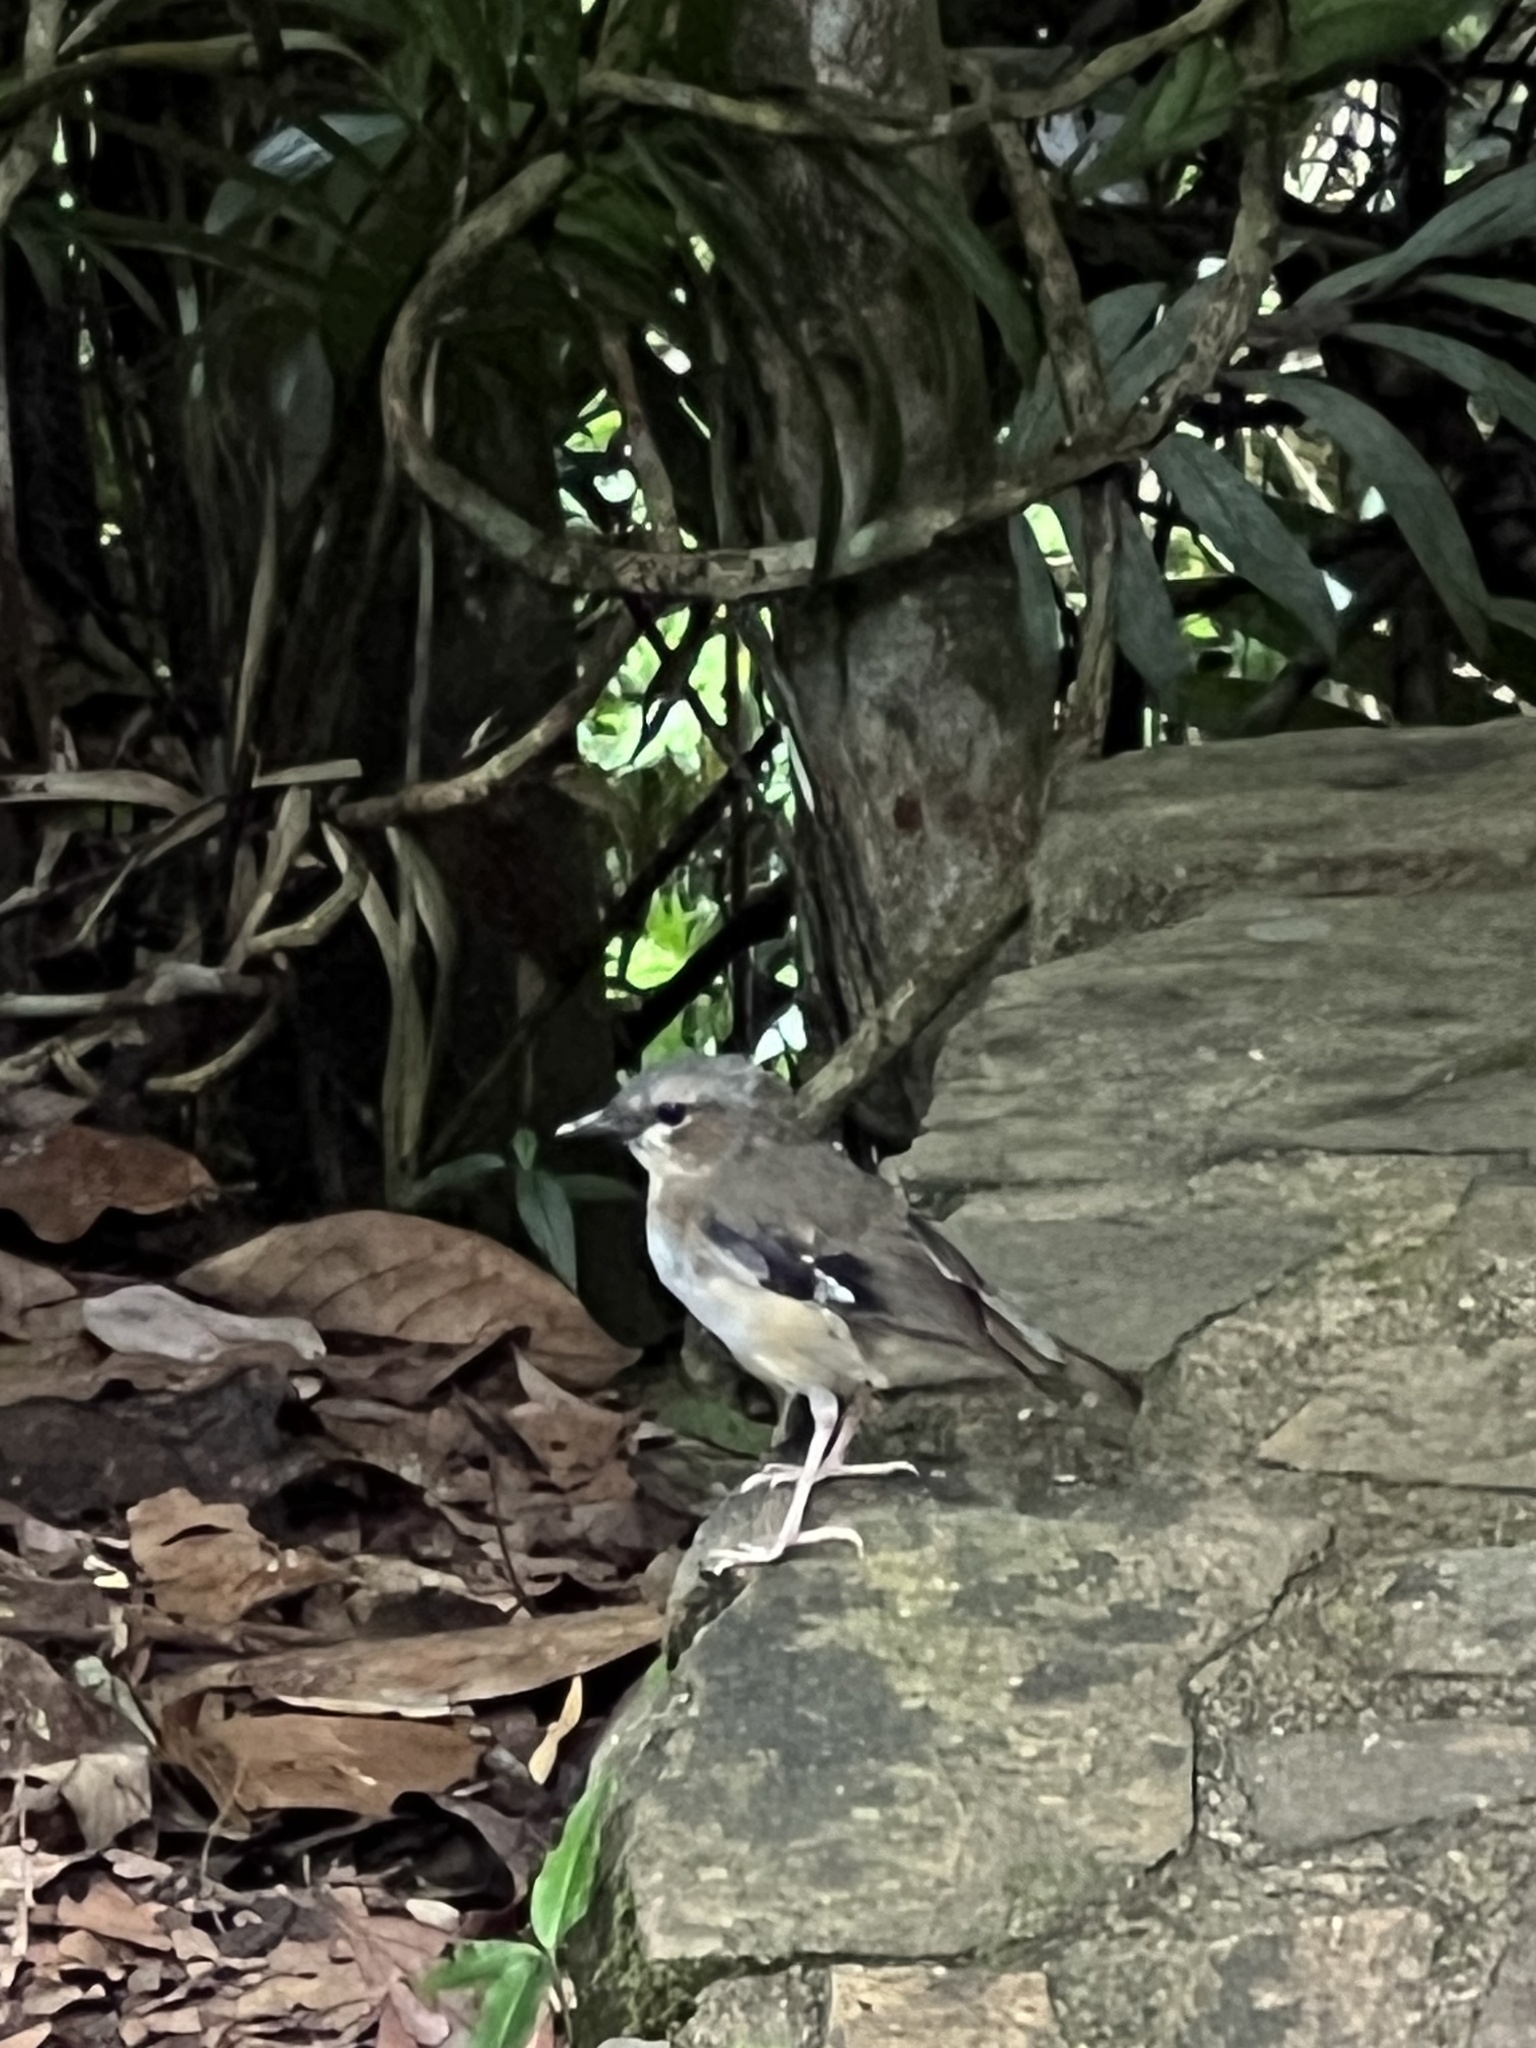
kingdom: Animalia
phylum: Chordata
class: Aves
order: Passeriformes
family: Petroicidae
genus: Heteromyias
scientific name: Heteromyias cinereifrons
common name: Grey-headed robin
